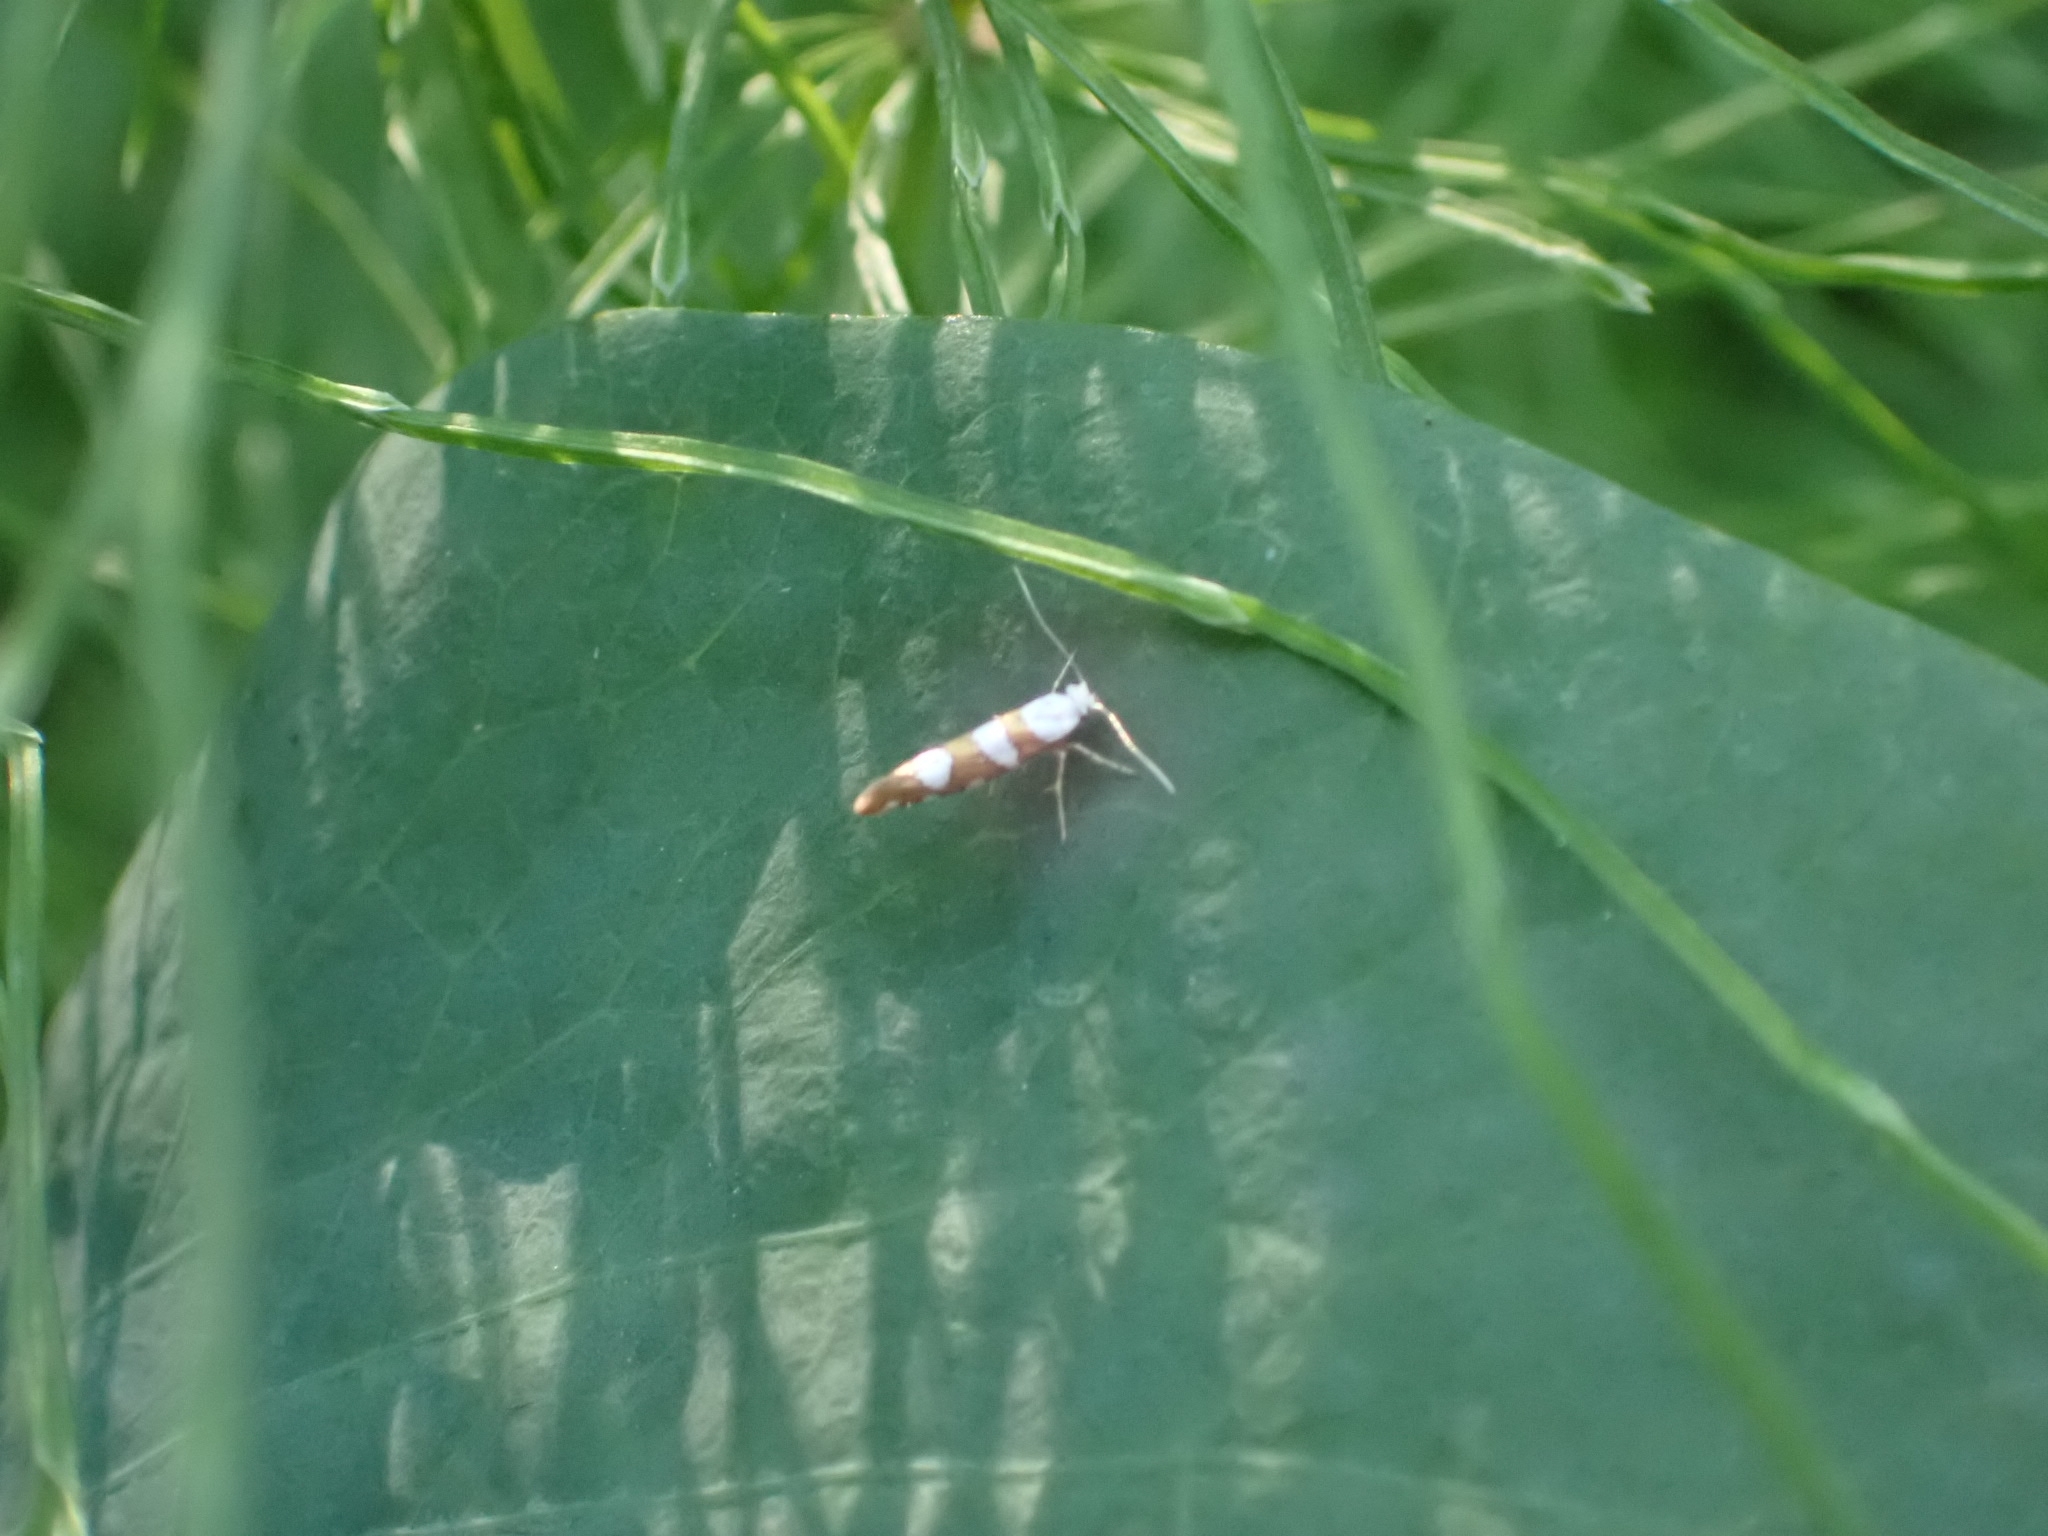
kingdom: Animalia
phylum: Arthropoda
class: Insecta
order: Lepidoptera
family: Argyresthiidae
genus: Argyresthia
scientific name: Argyresthia brockeella
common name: Gold-ribbon argent
